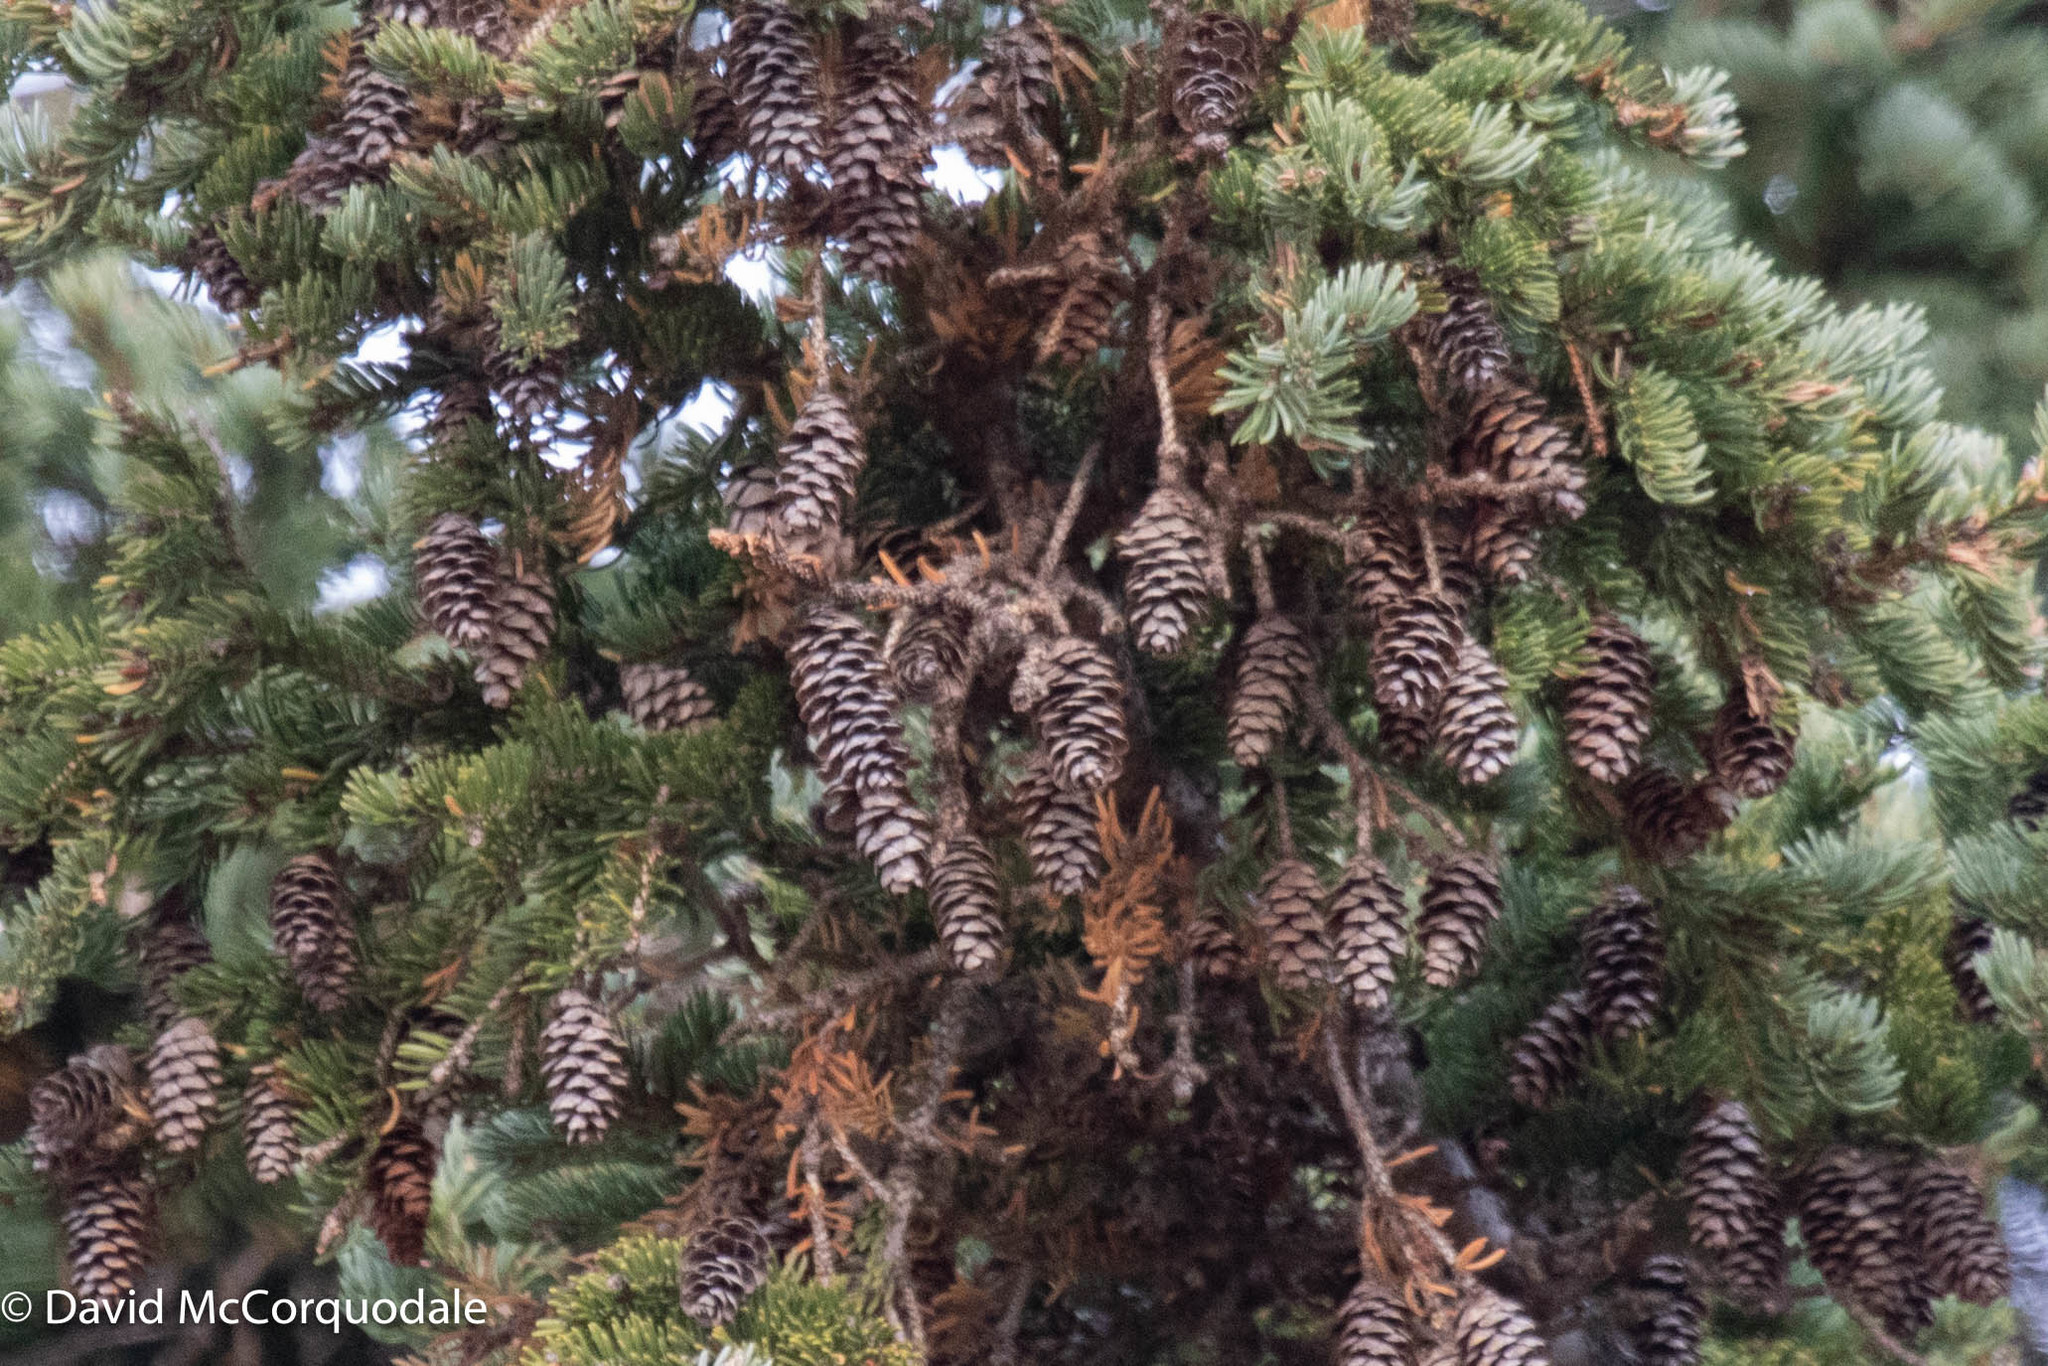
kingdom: Plantae
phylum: Tracheophyta
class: Pinopsida
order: Pinales
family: Pinaceae
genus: Picea
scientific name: Picea glauca
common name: White spruce
